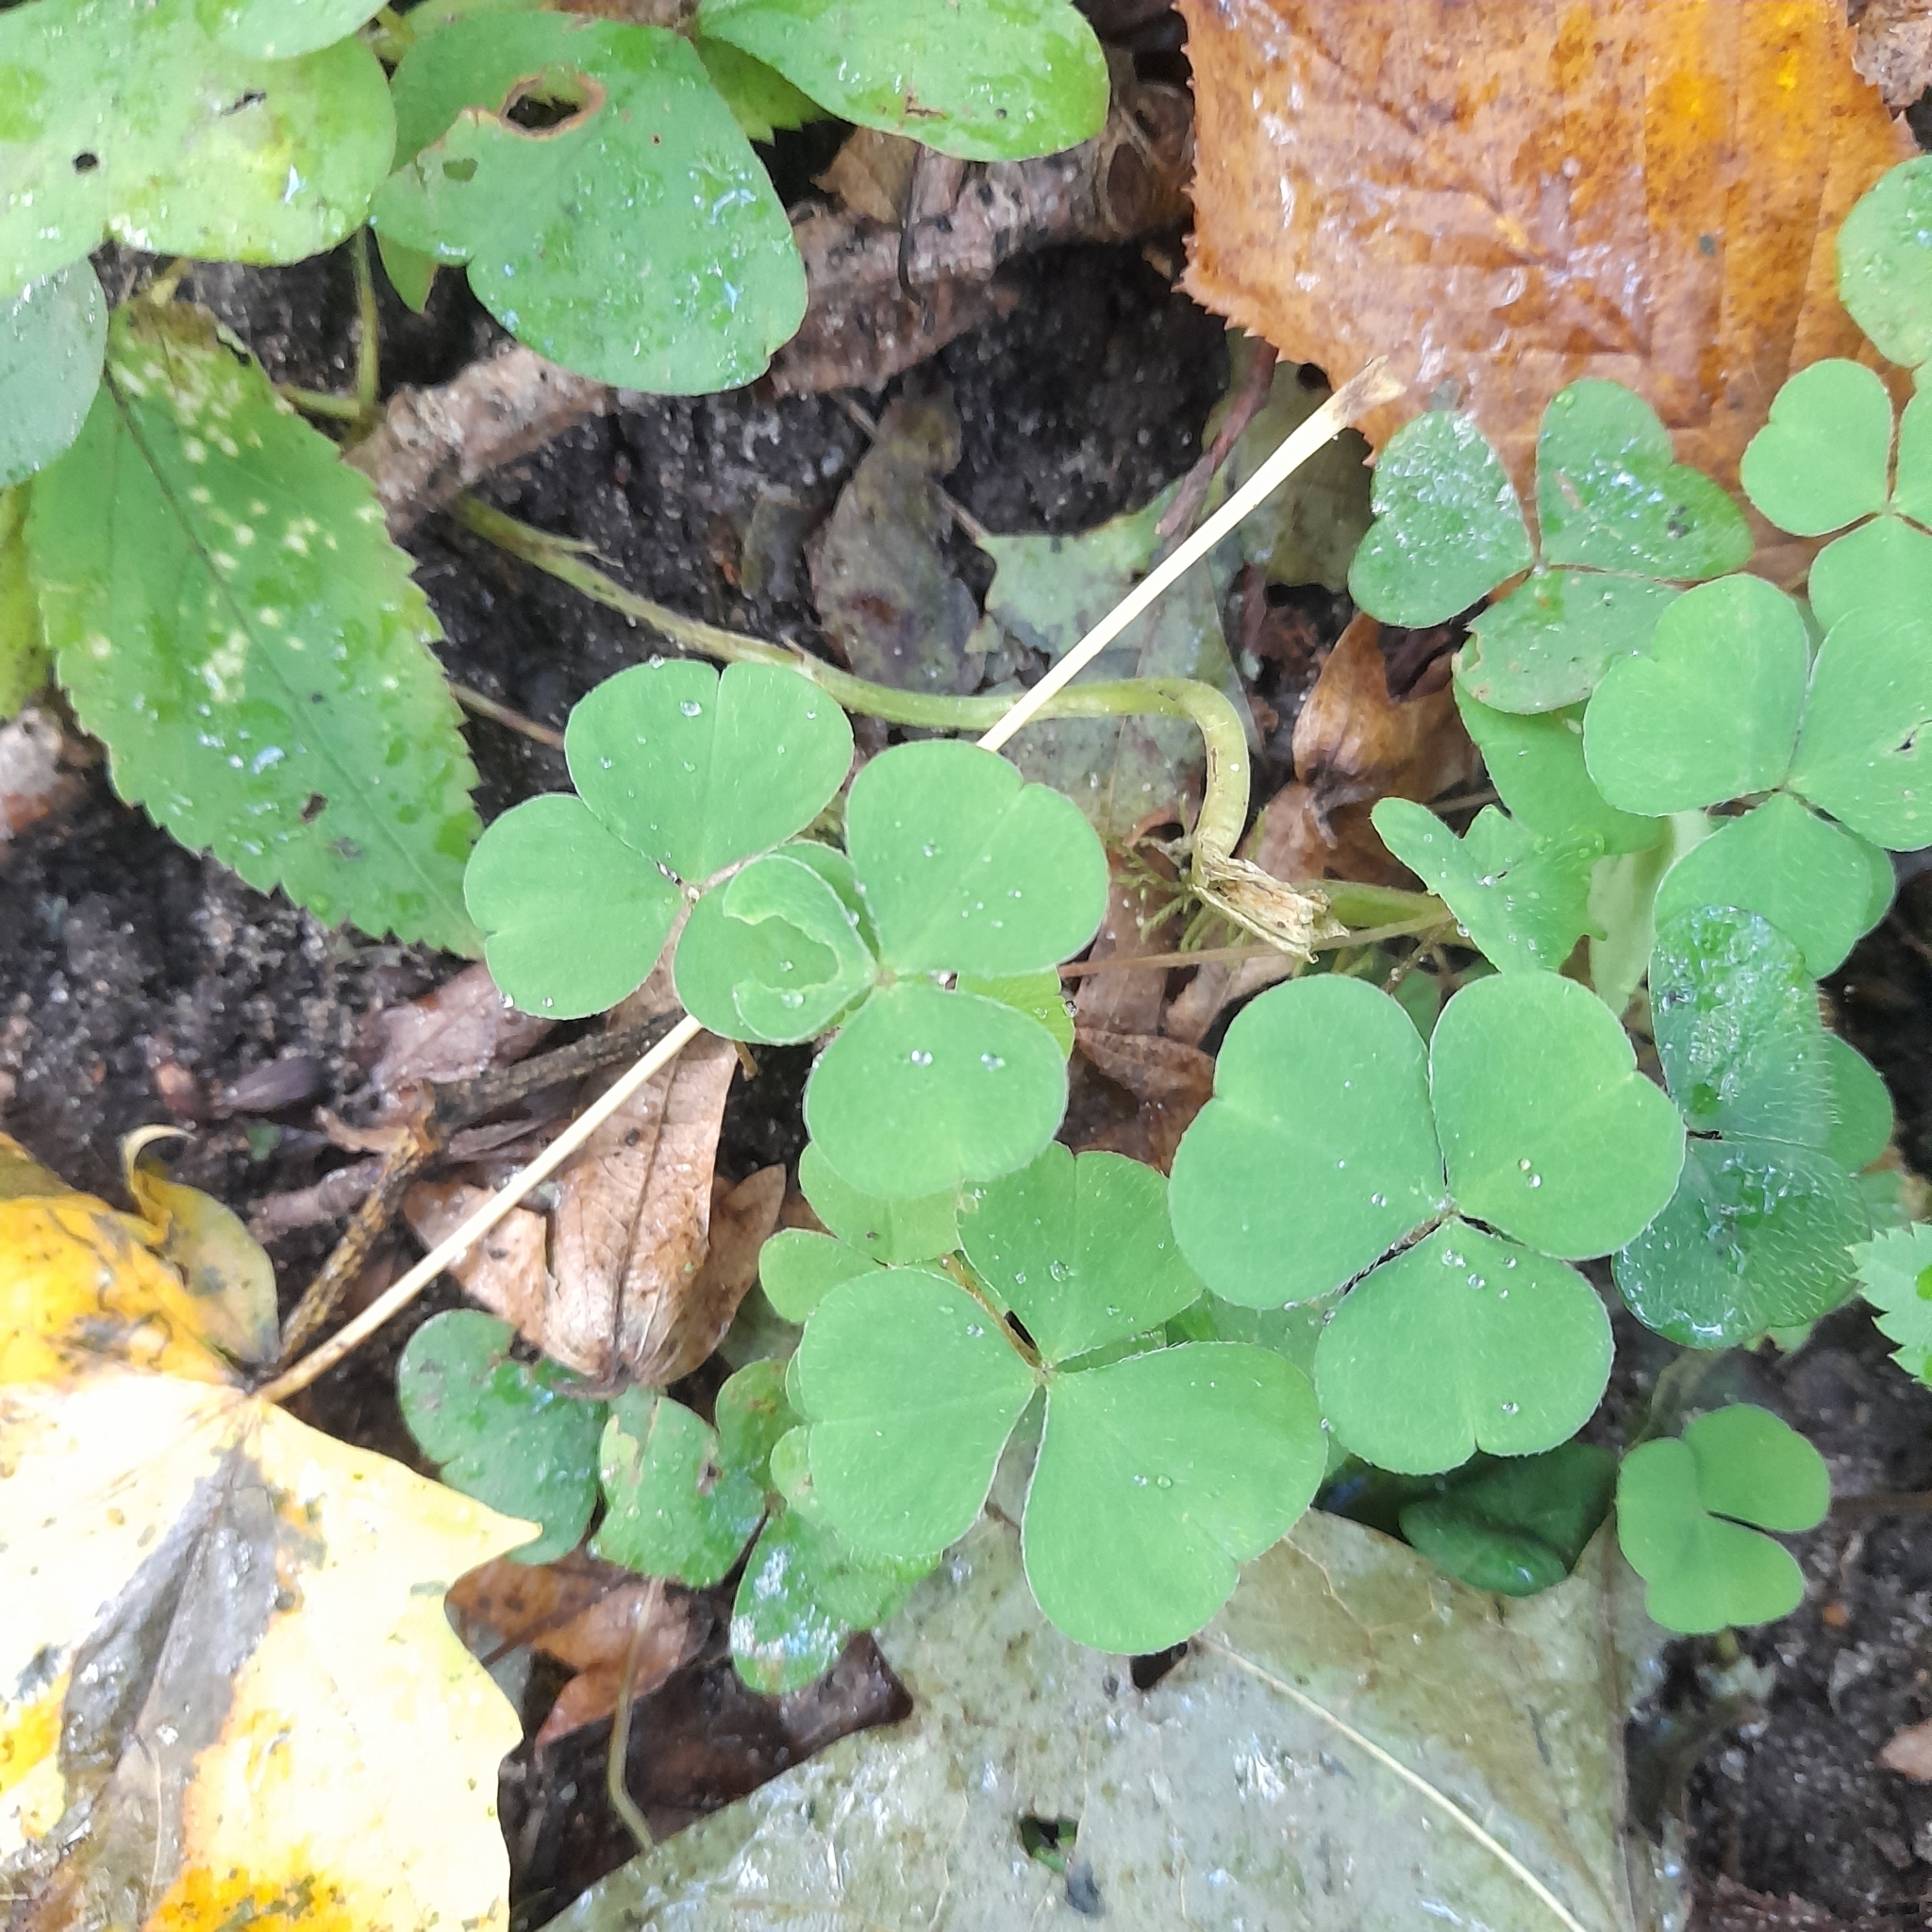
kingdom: Plantae
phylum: Tracheophyta
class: Magnoliopsida
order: Oxalidales
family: Oxalidaceae
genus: Oxalis
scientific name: Oxalis acetosella
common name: Wood-sorrel
